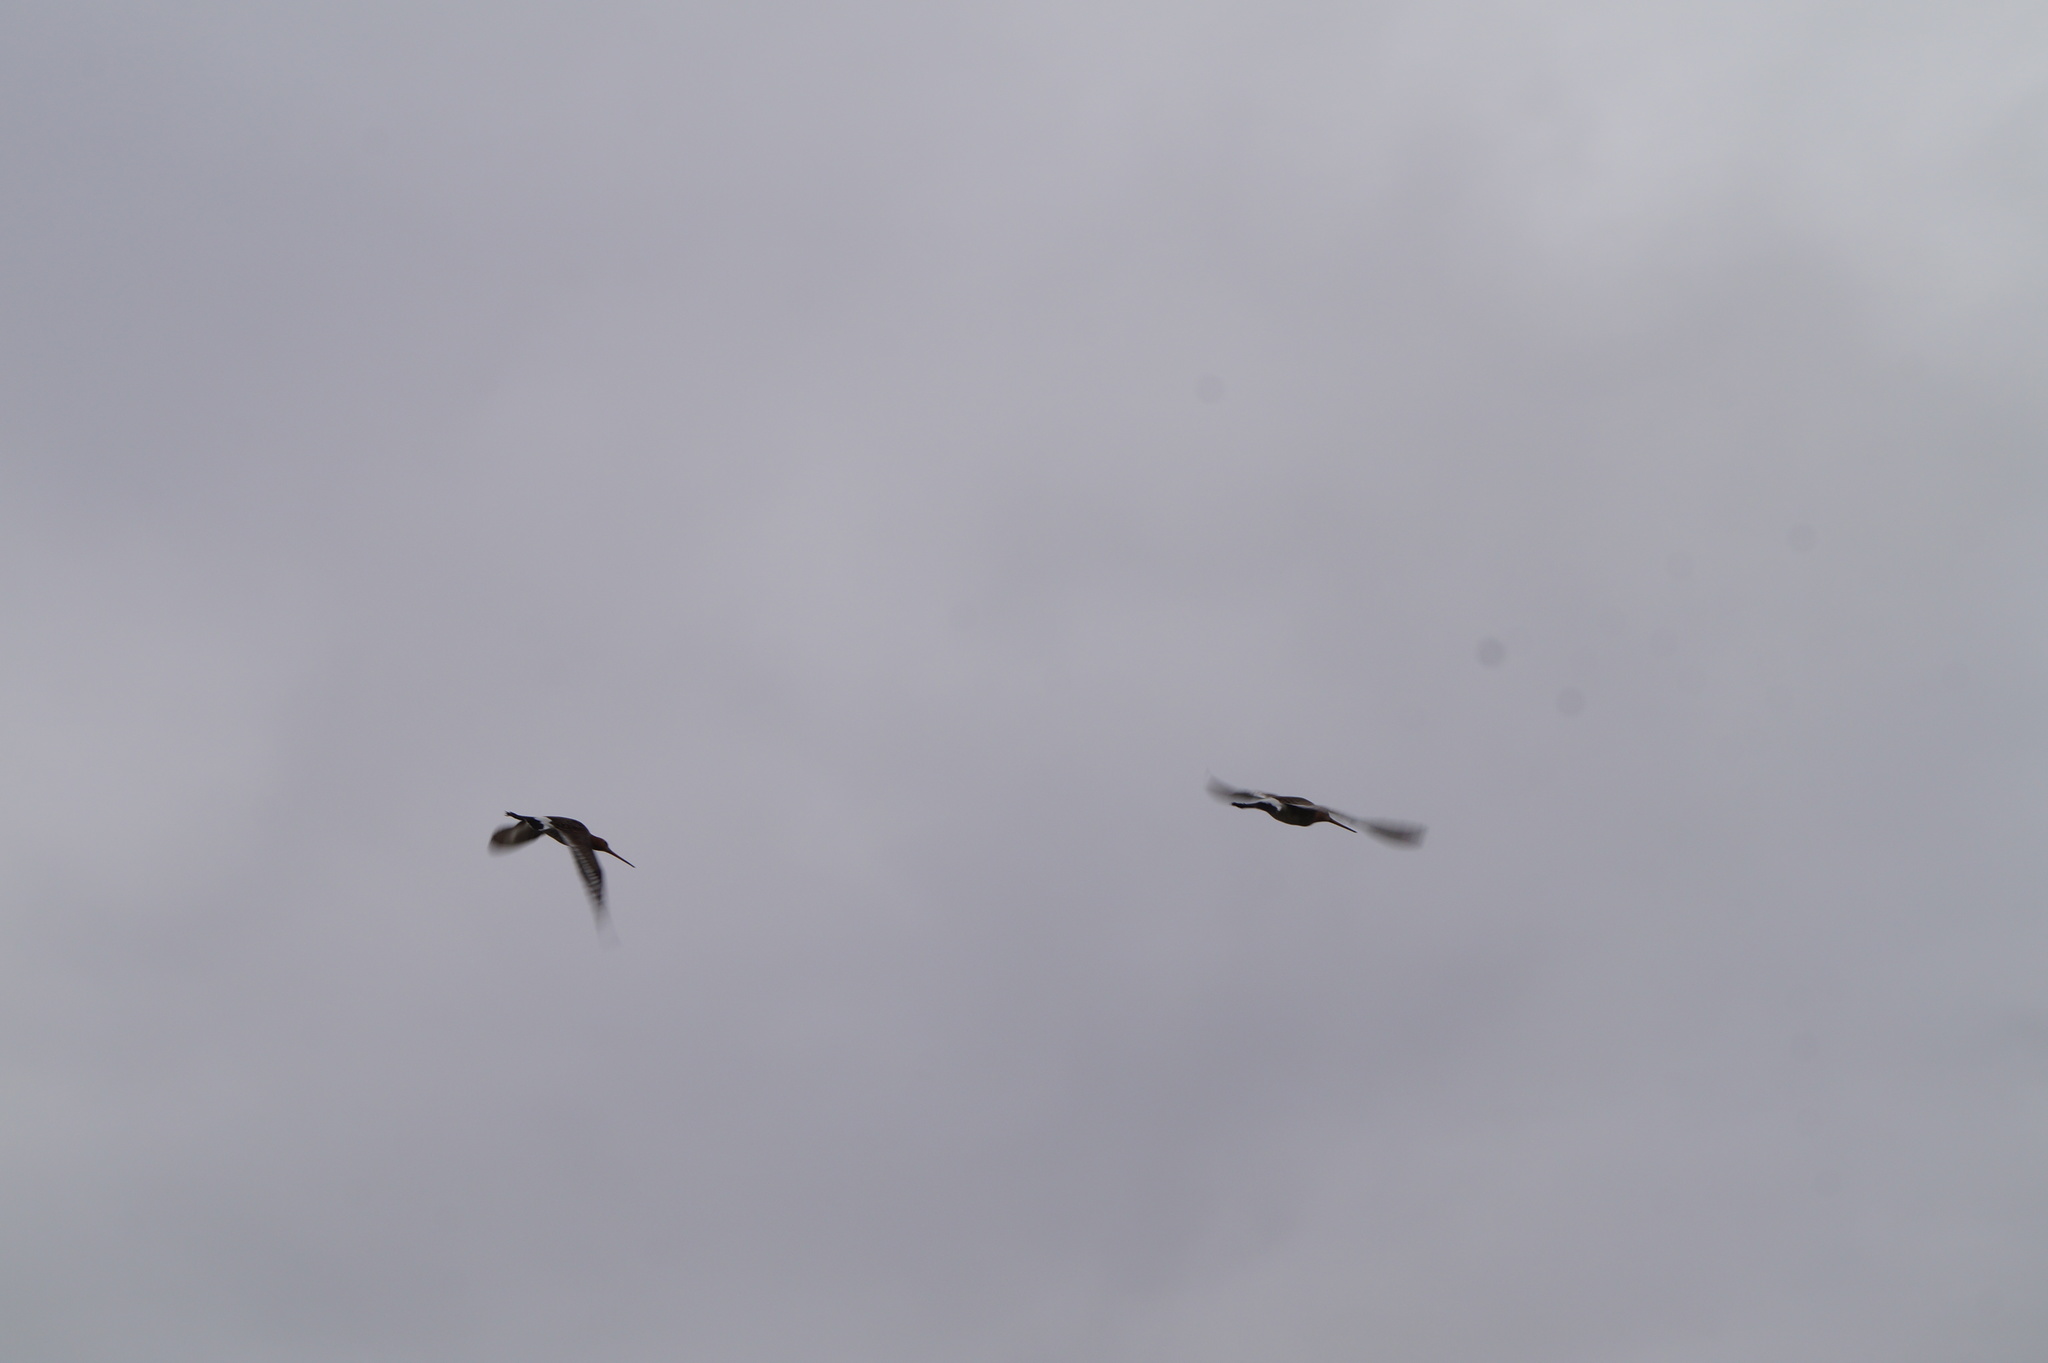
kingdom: Animalia
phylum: Chordata
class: Aves
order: Charadriiformes
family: Haematopodidae
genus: Haematopus
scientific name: Haematopus ostralegus
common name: Eurasian oystercatcher
